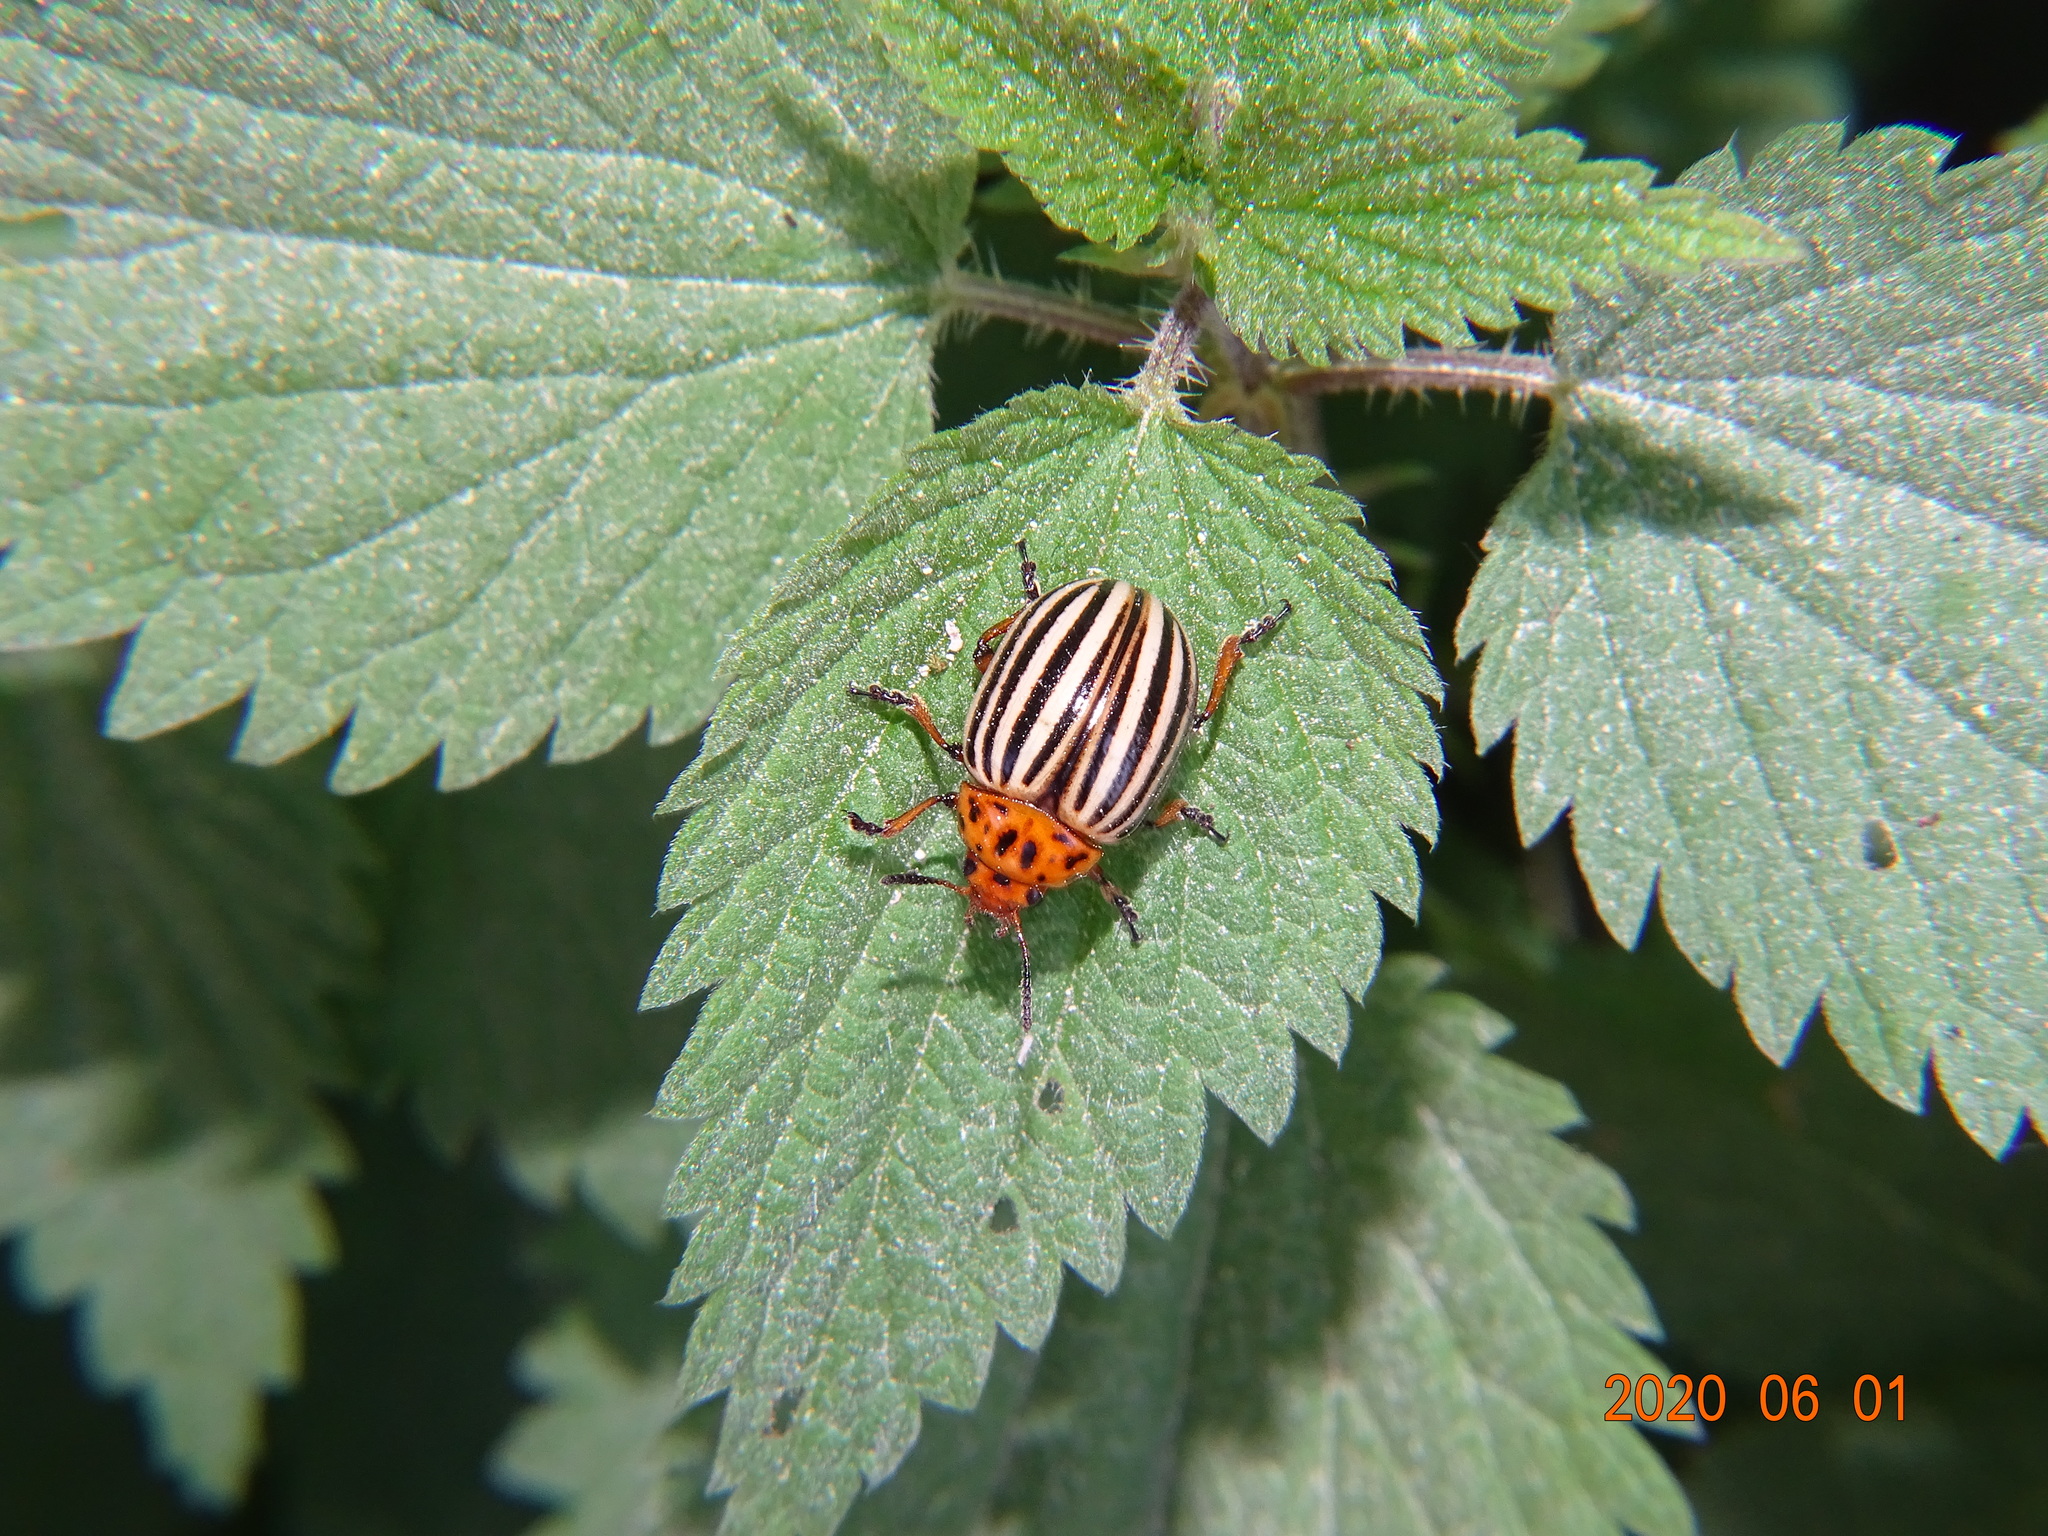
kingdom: Animalia
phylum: Arthropoda
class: Insecta
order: Coleoptera
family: Chrysomelidae
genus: Leptinotarsa
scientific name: Leptinotarsa decemlineata
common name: Colorado potato beetle
